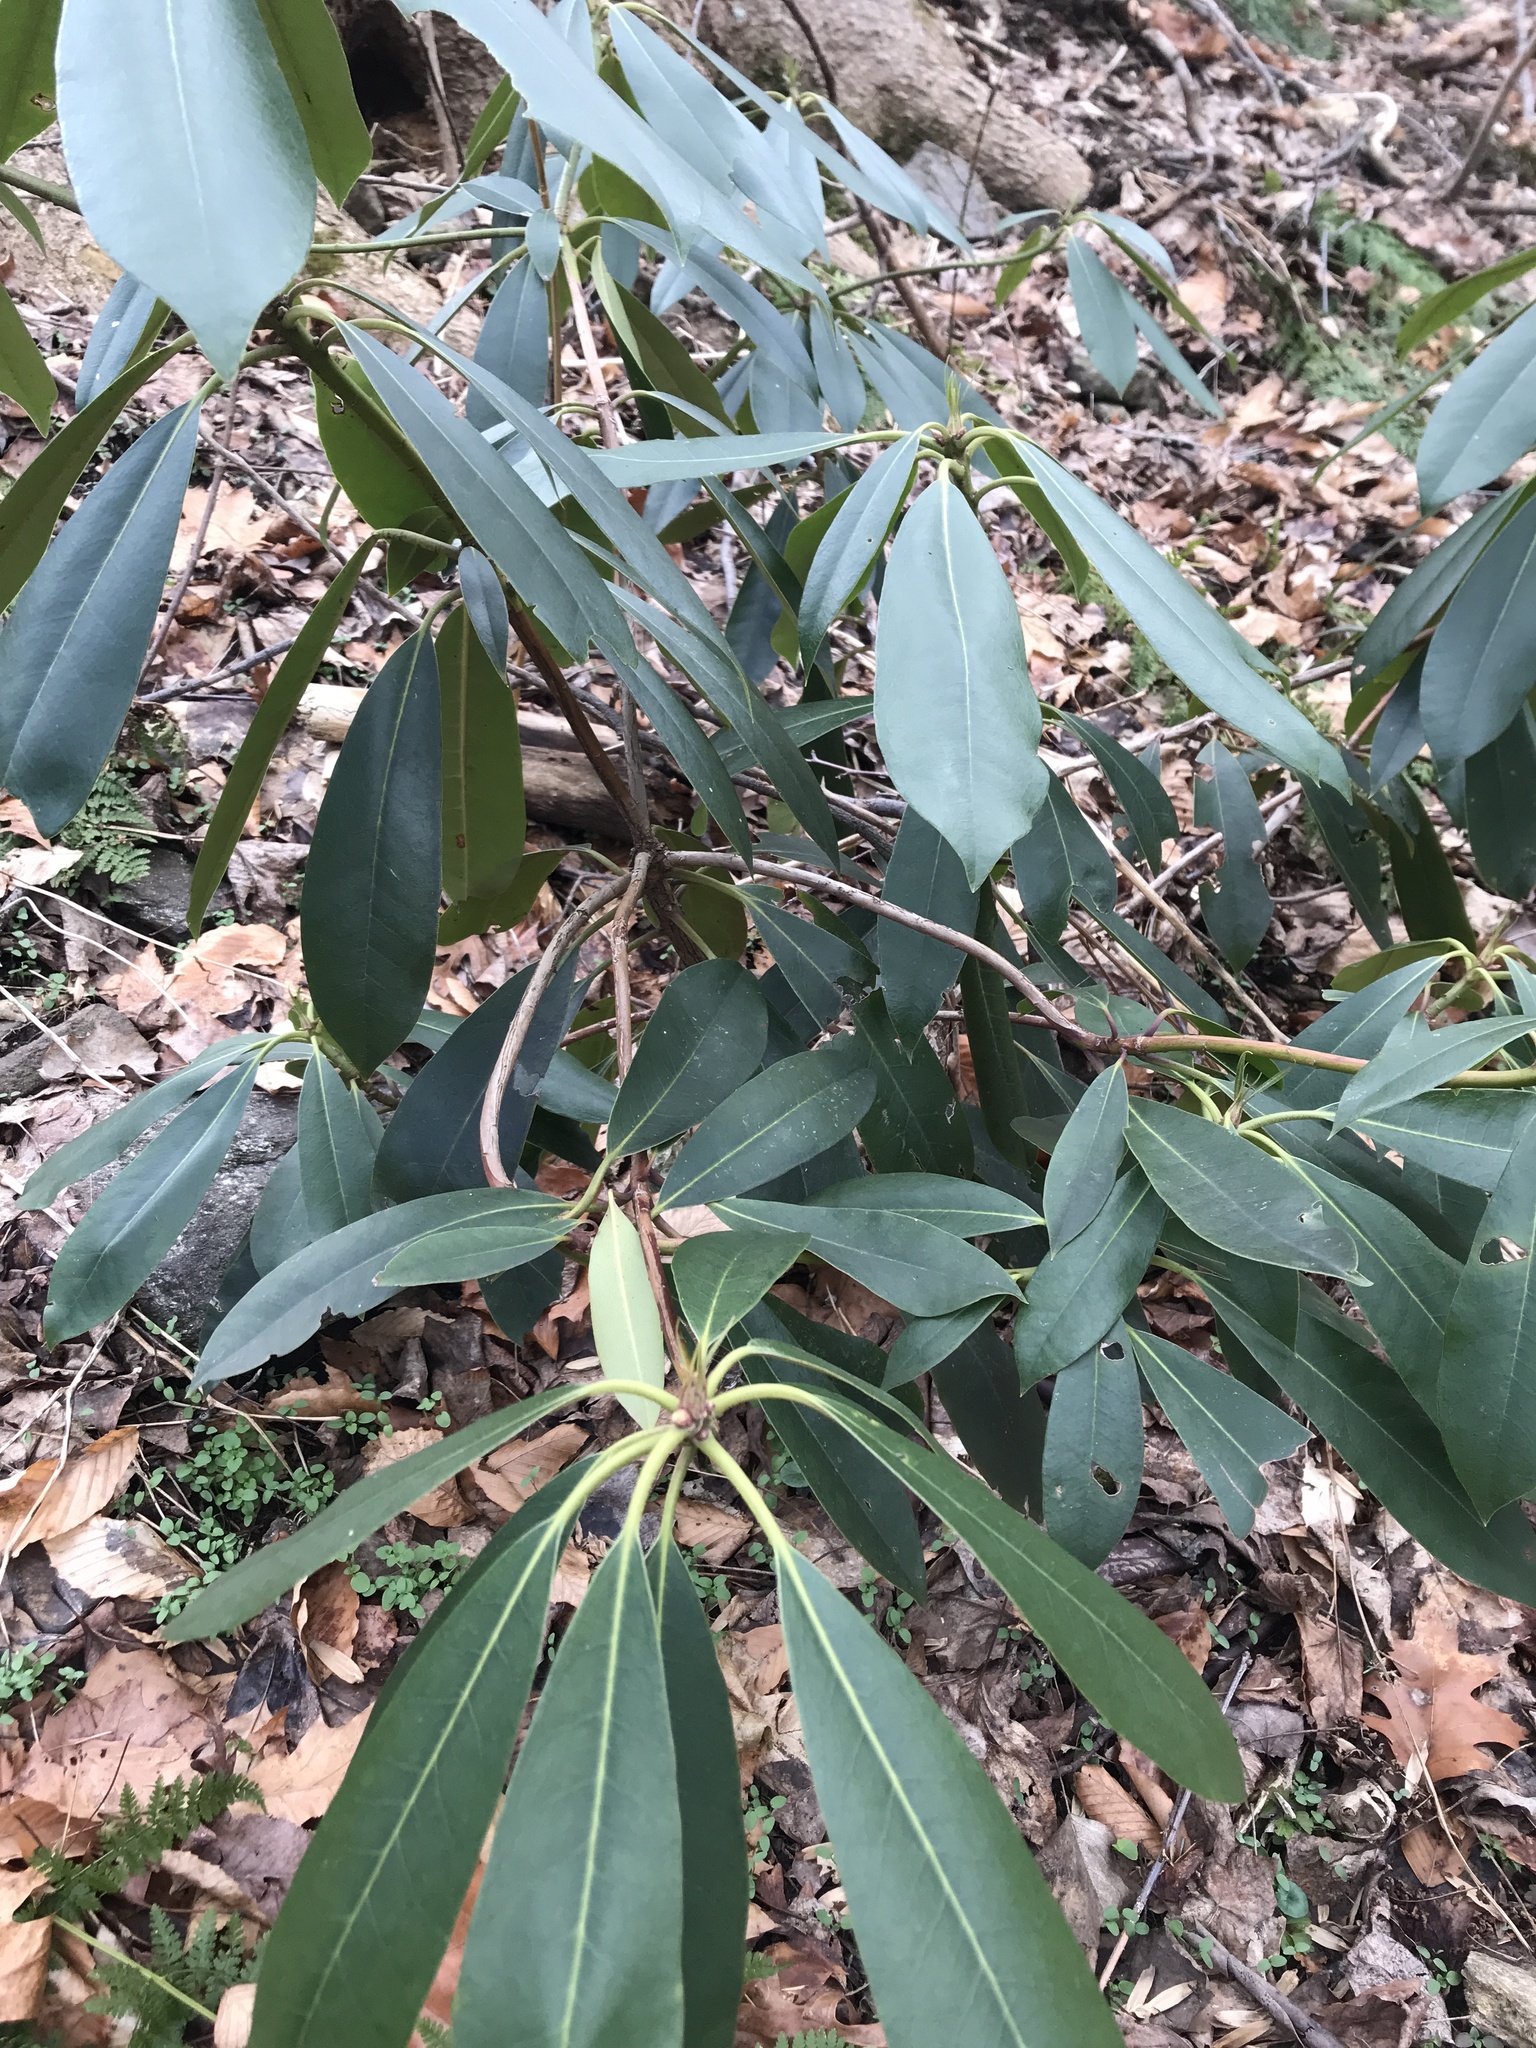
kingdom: Plantae
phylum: Tracheophyta
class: Magnoliopsida
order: Ericales
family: Ericaceae
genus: Rhododendron
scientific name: Rhododendron maximum
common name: Great rhododendron
